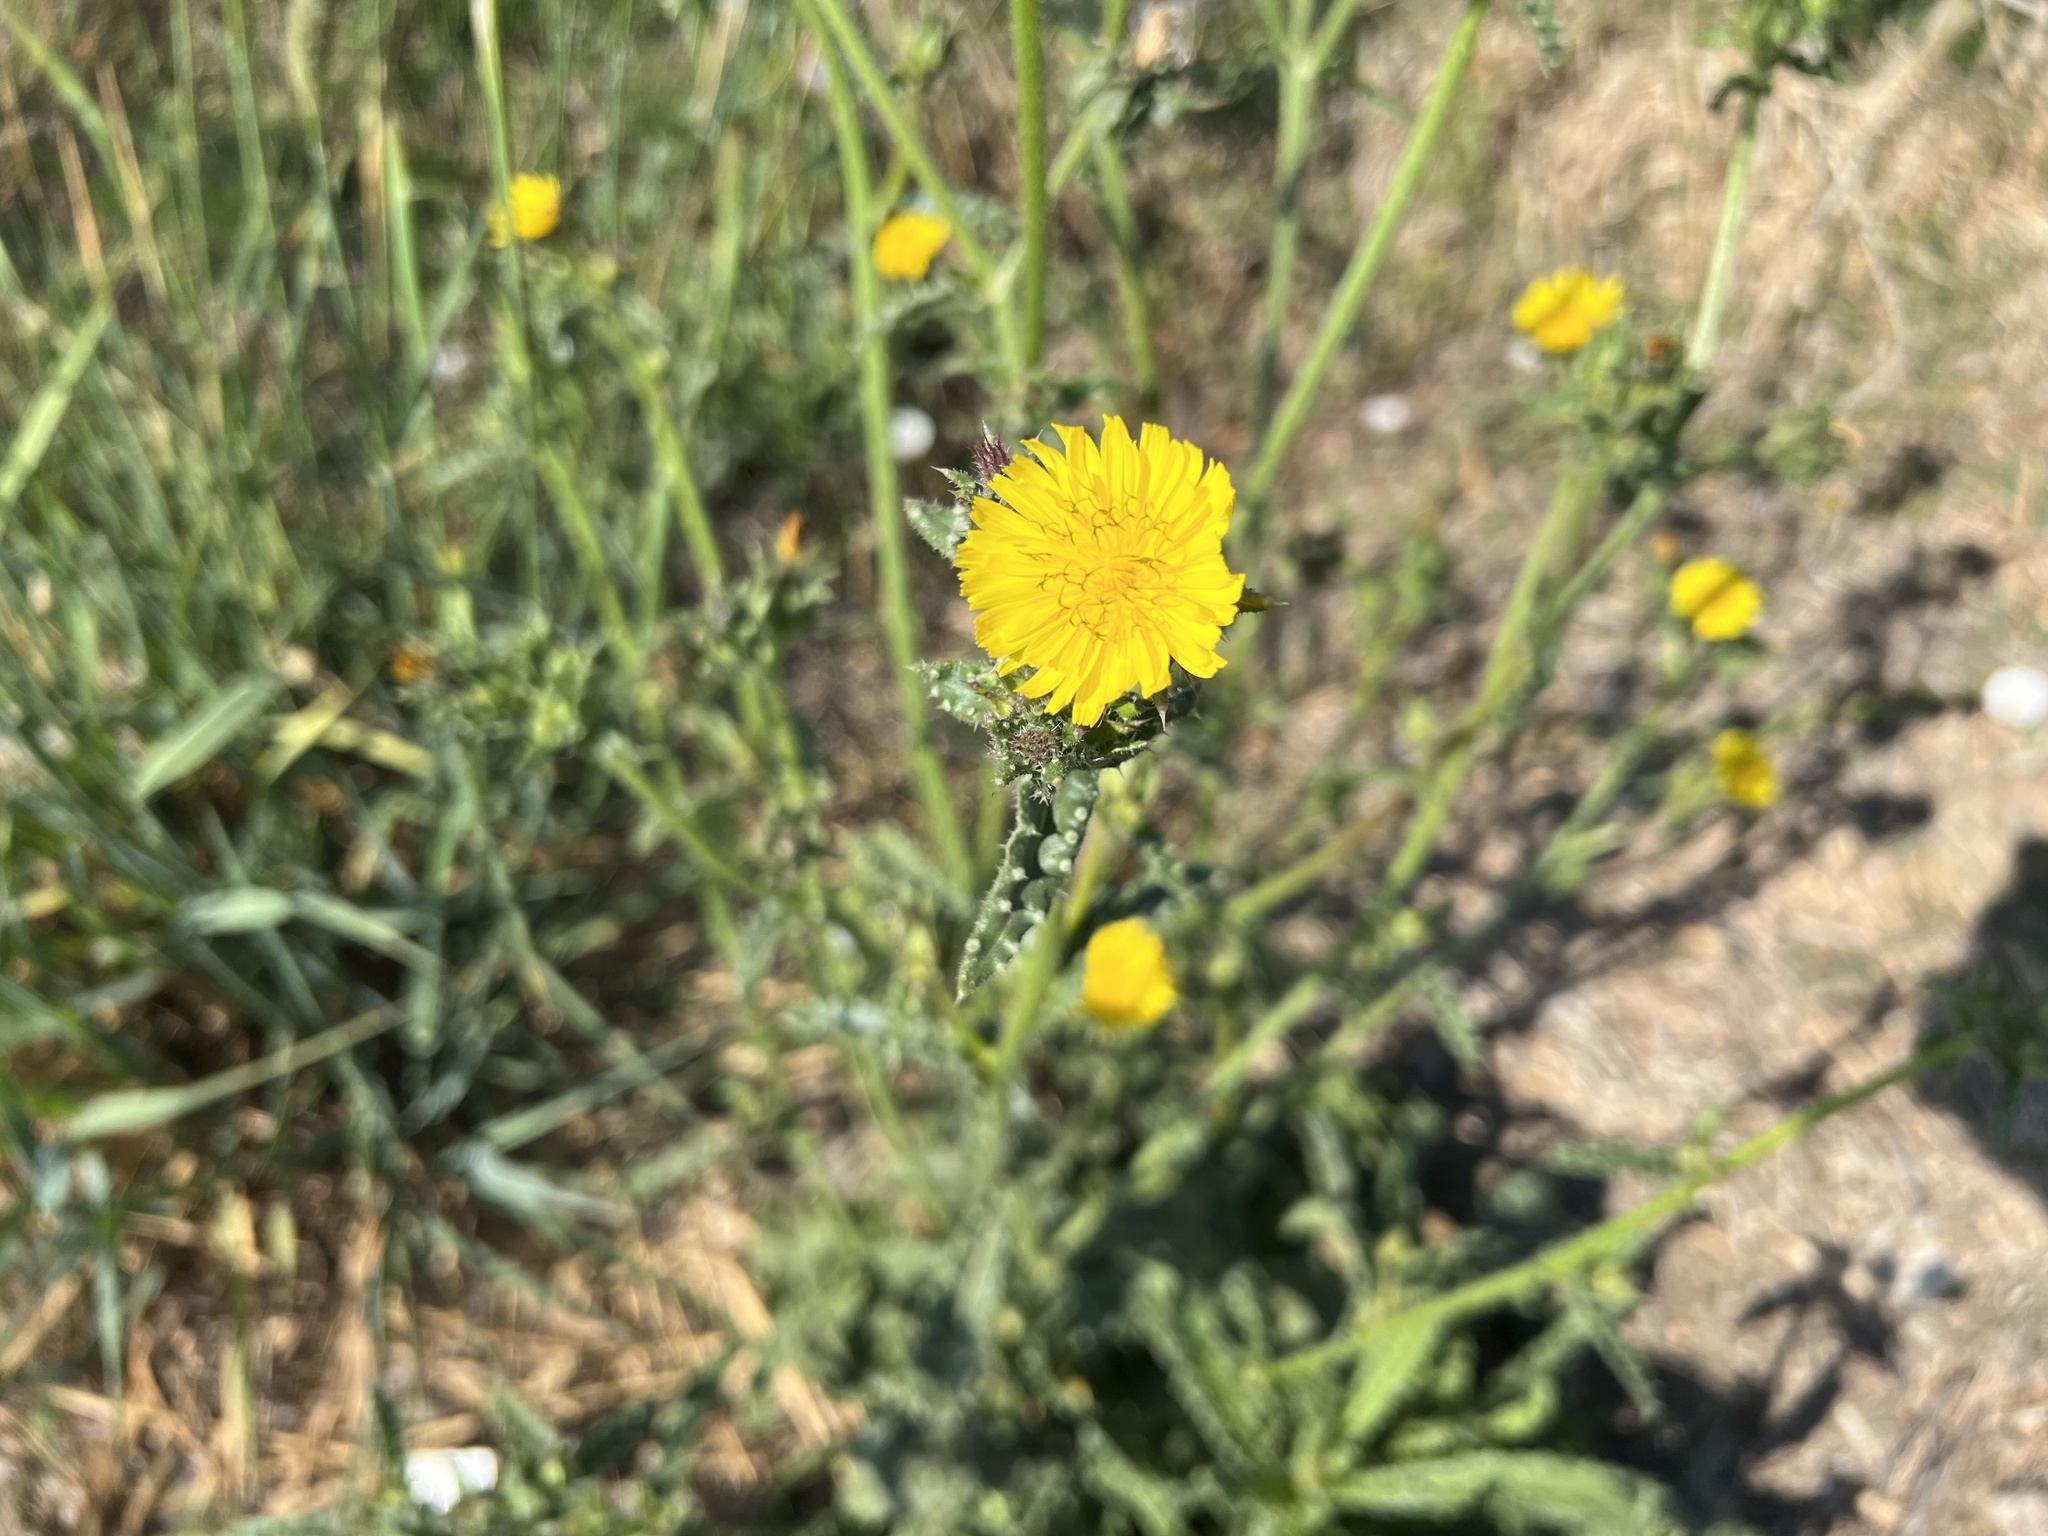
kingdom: Plantae
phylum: Tracheophyta
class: Magnoliopsida
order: Asterales
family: Asteraceae
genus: Helminthotheca
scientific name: Helminthotheca echioides
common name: Ox-tongue
